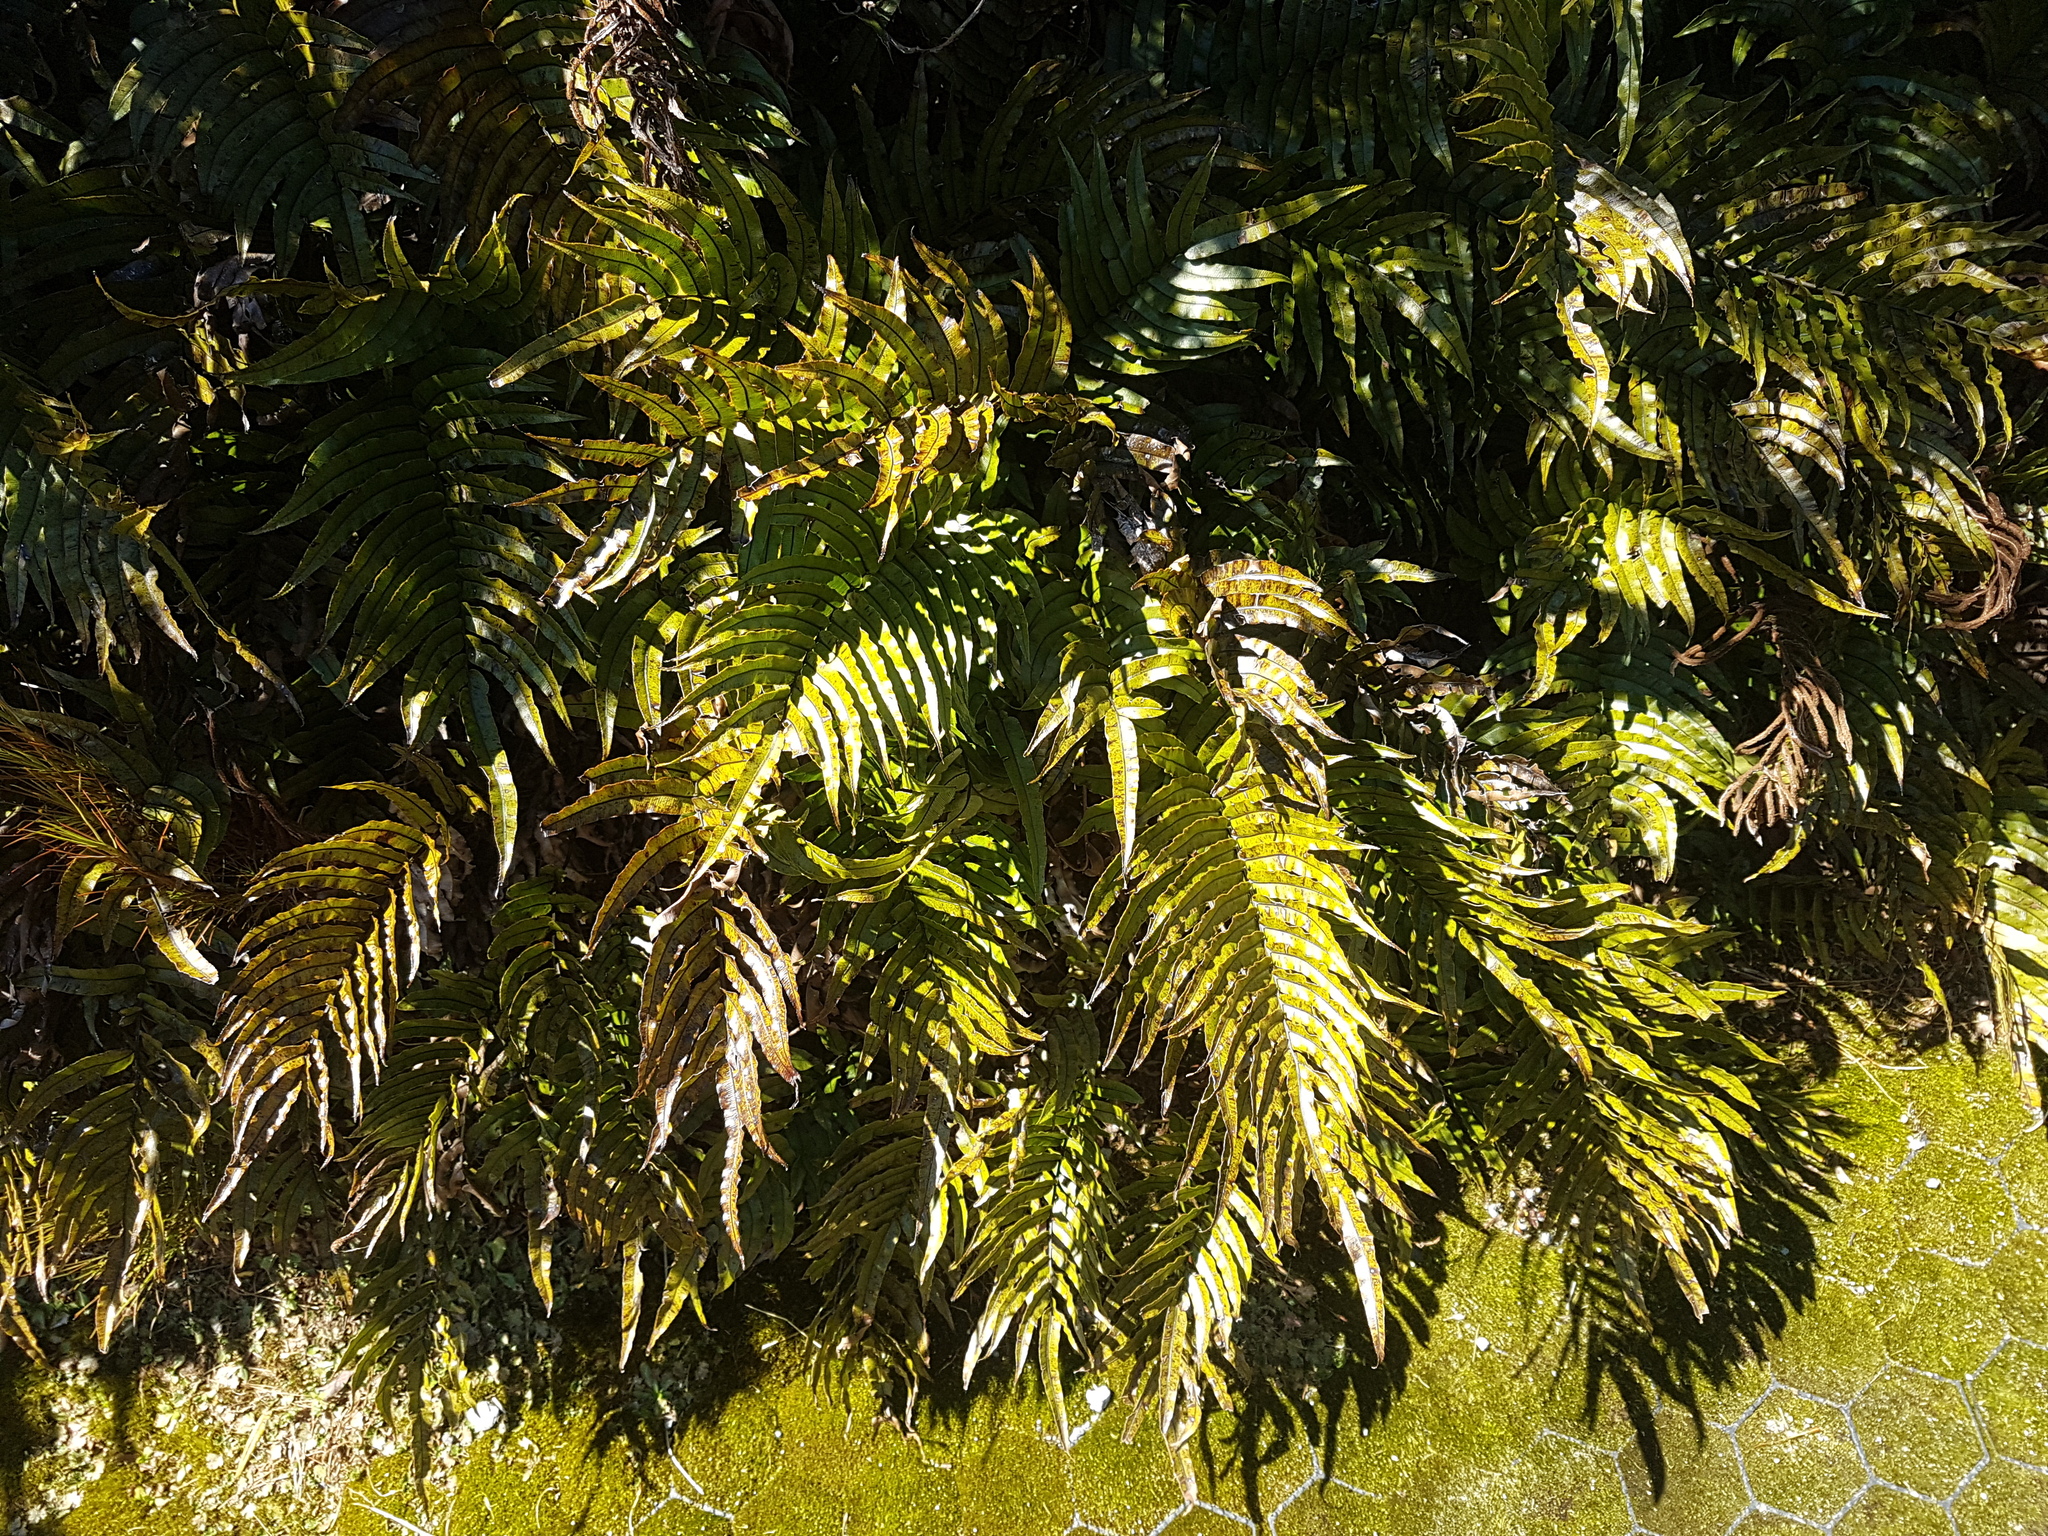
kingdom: Plantae
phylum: Tracheophyta
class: Polypodiopsida
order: Polypodiales
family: Blechnaceae
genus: Parablechnum
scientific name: Parablechnum montanum
